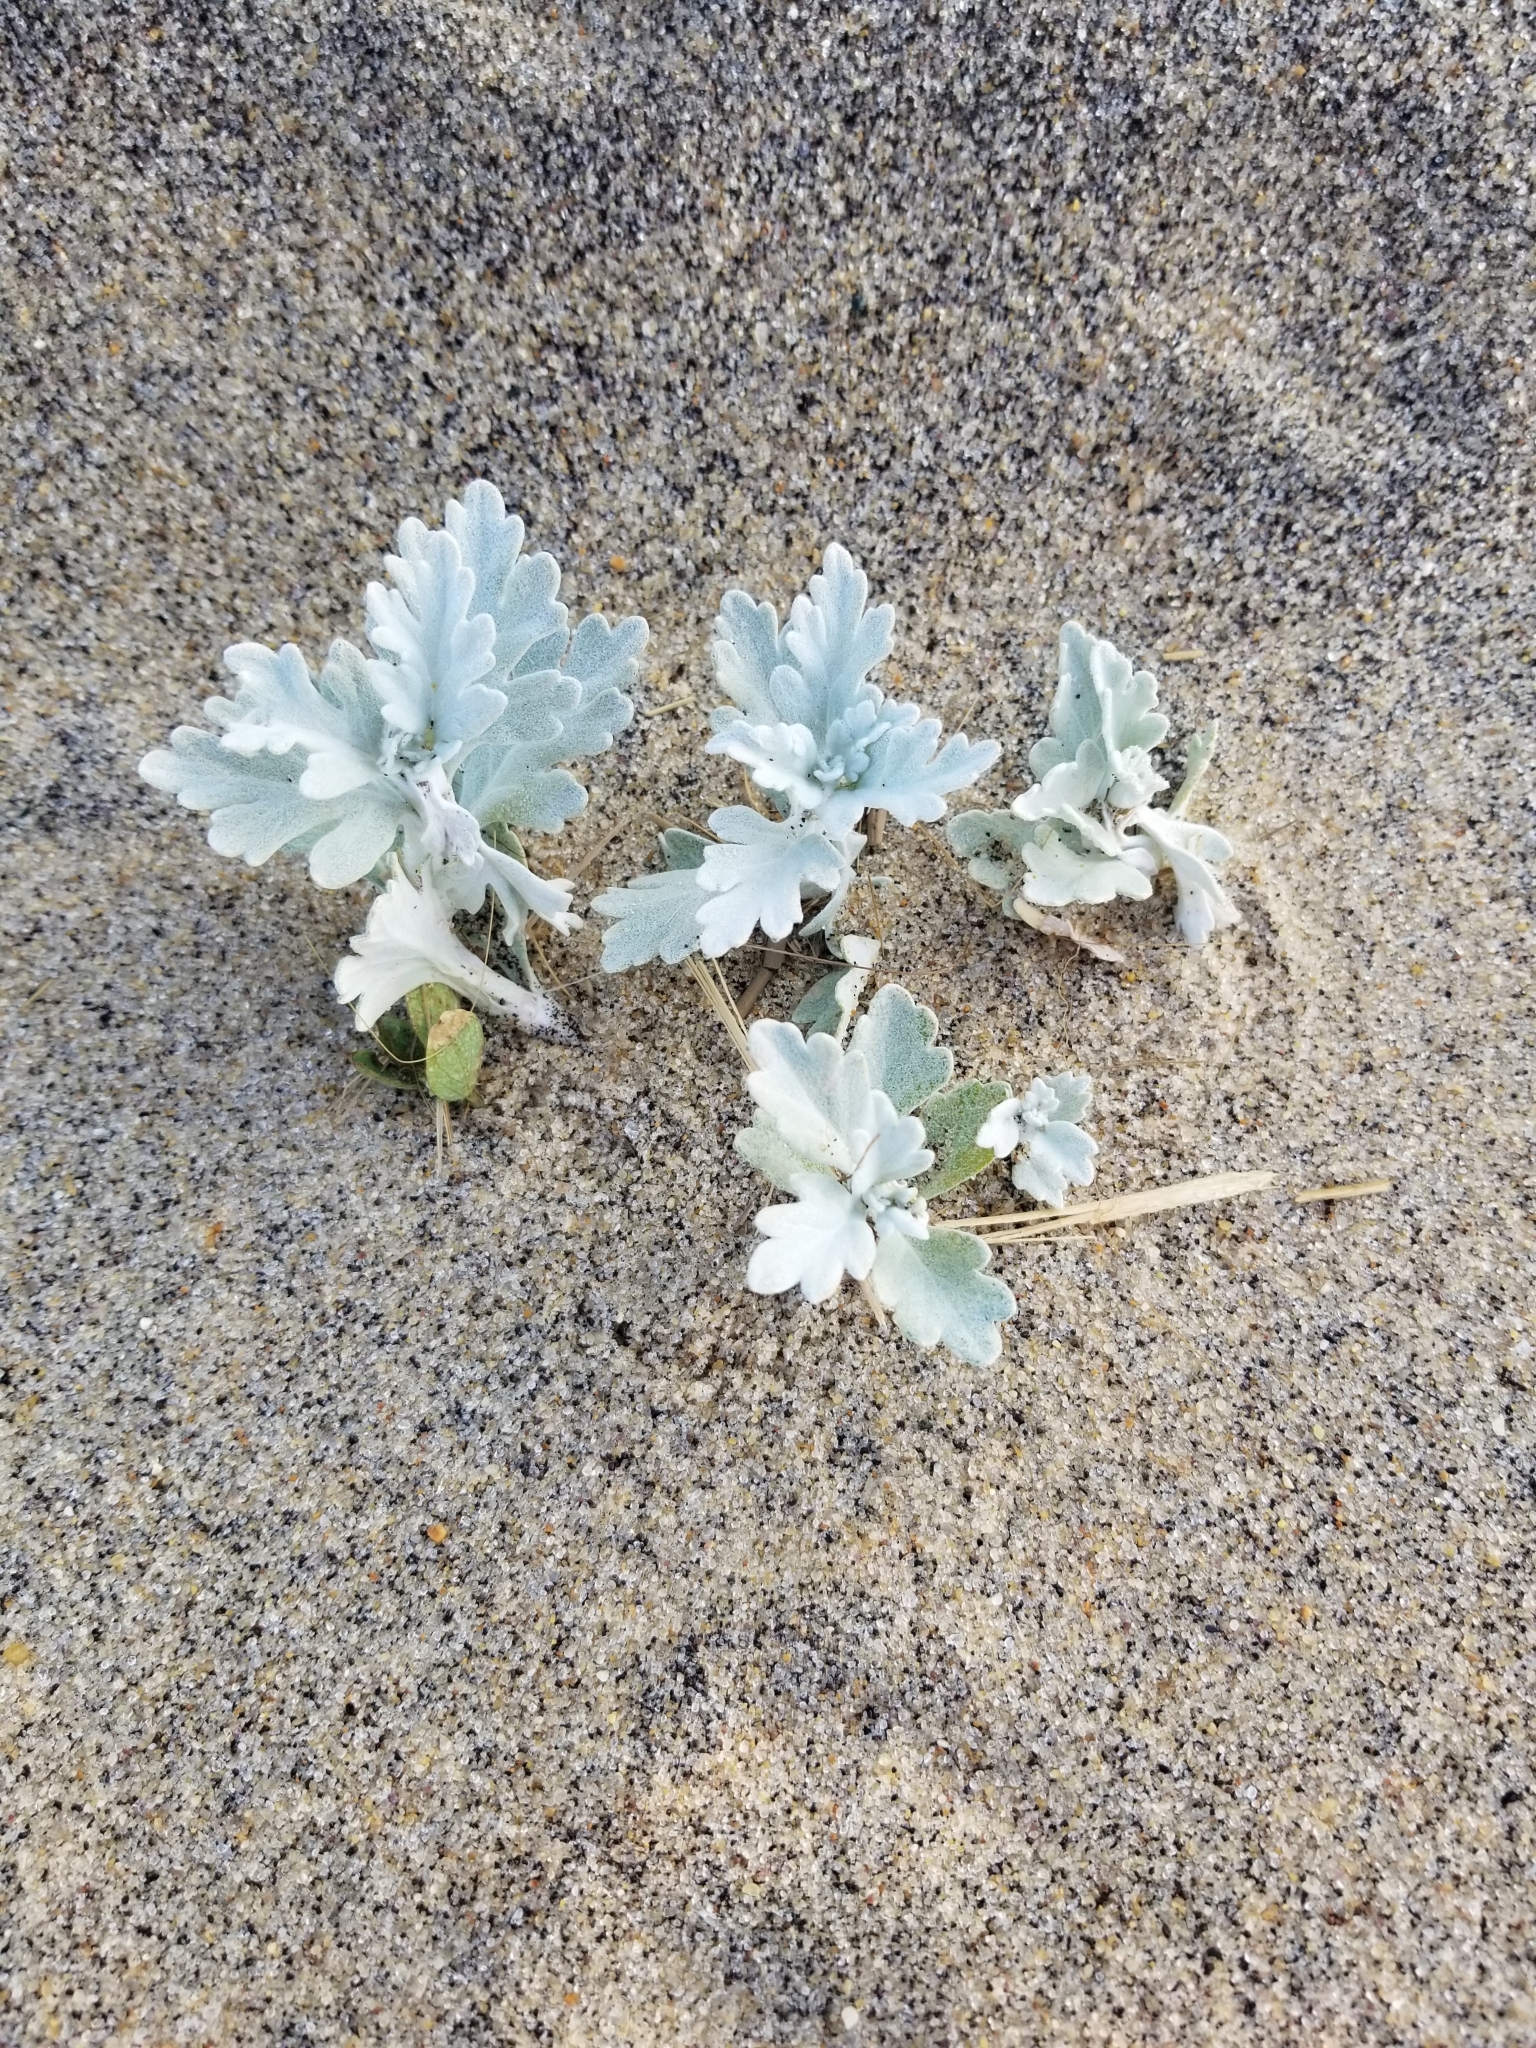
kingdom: Plantae
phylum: Tracheophyta
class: Magnoliopsida
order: Asterales
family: Asteraceae
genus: Artemisia
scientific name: Artemisia stelleriana
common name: Beach wormwood
